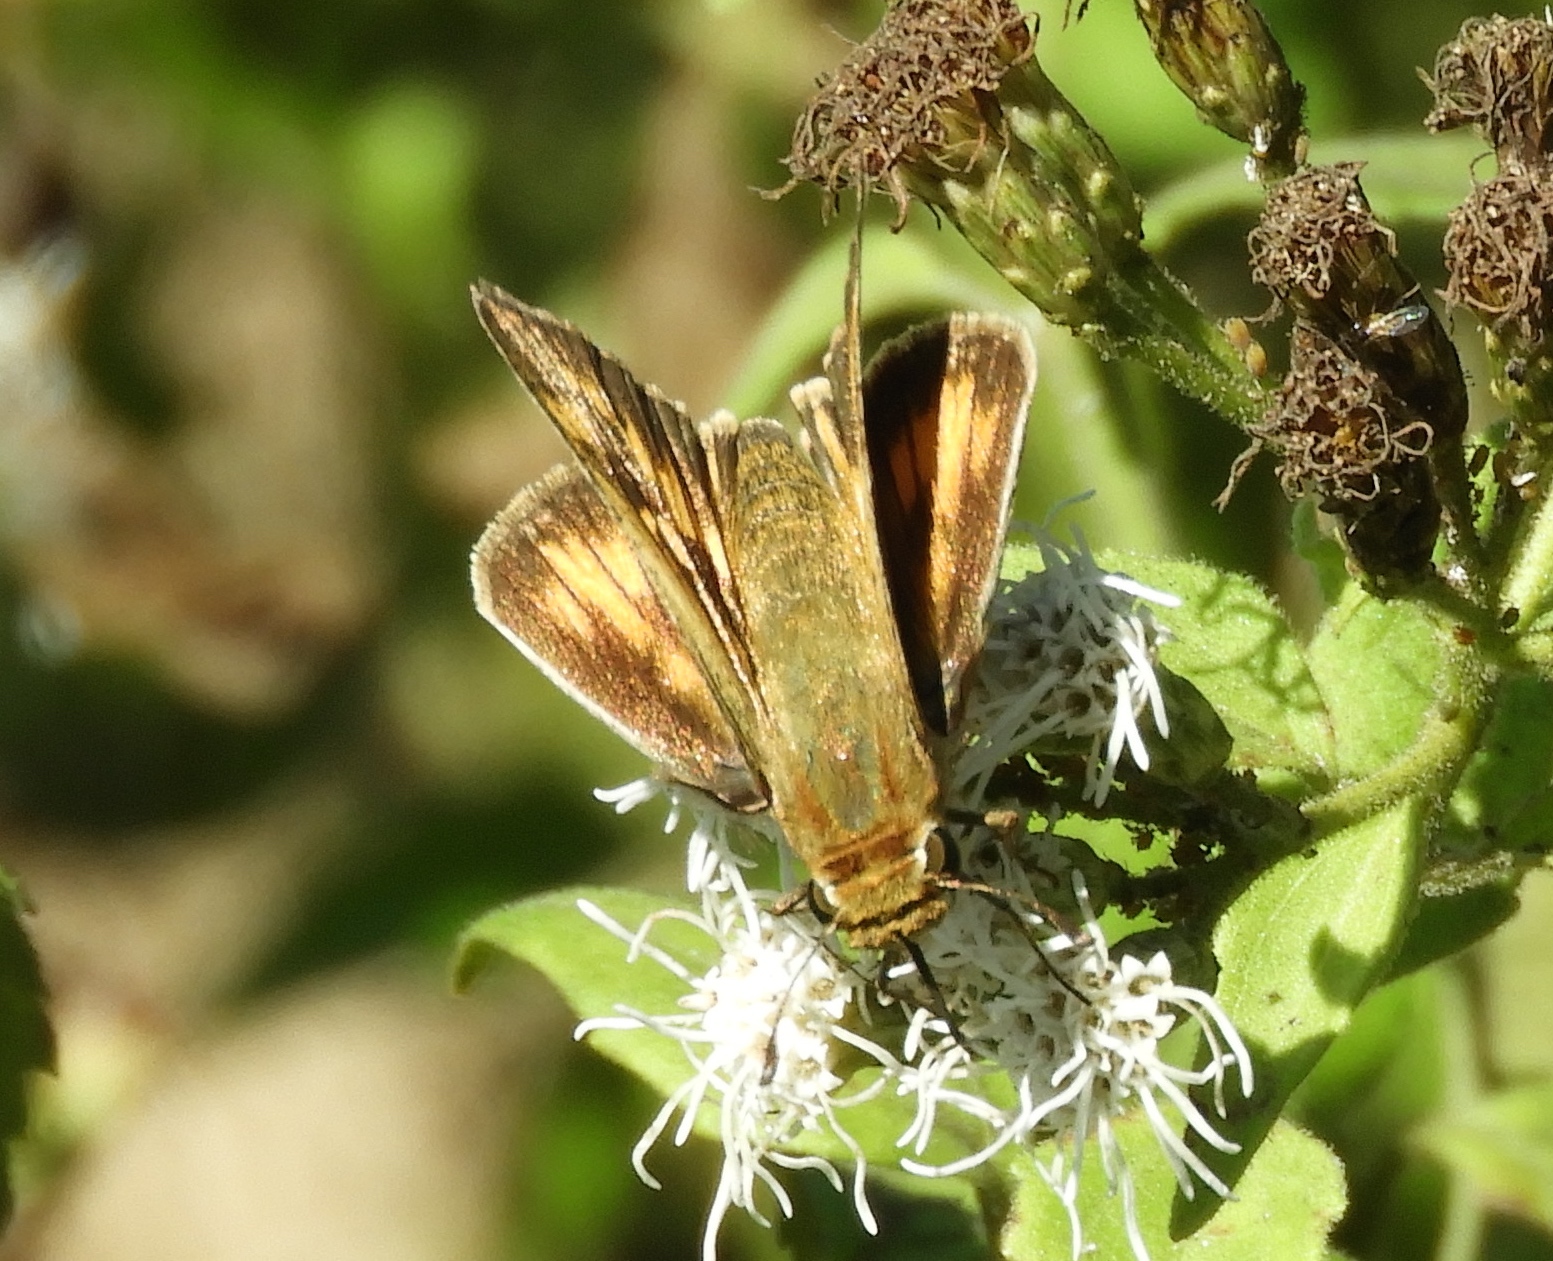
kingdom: Animalia
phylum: Arthropoda
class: Insecta
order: Lepidoptera
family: Hesperiidae
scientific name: Hesperiidae
